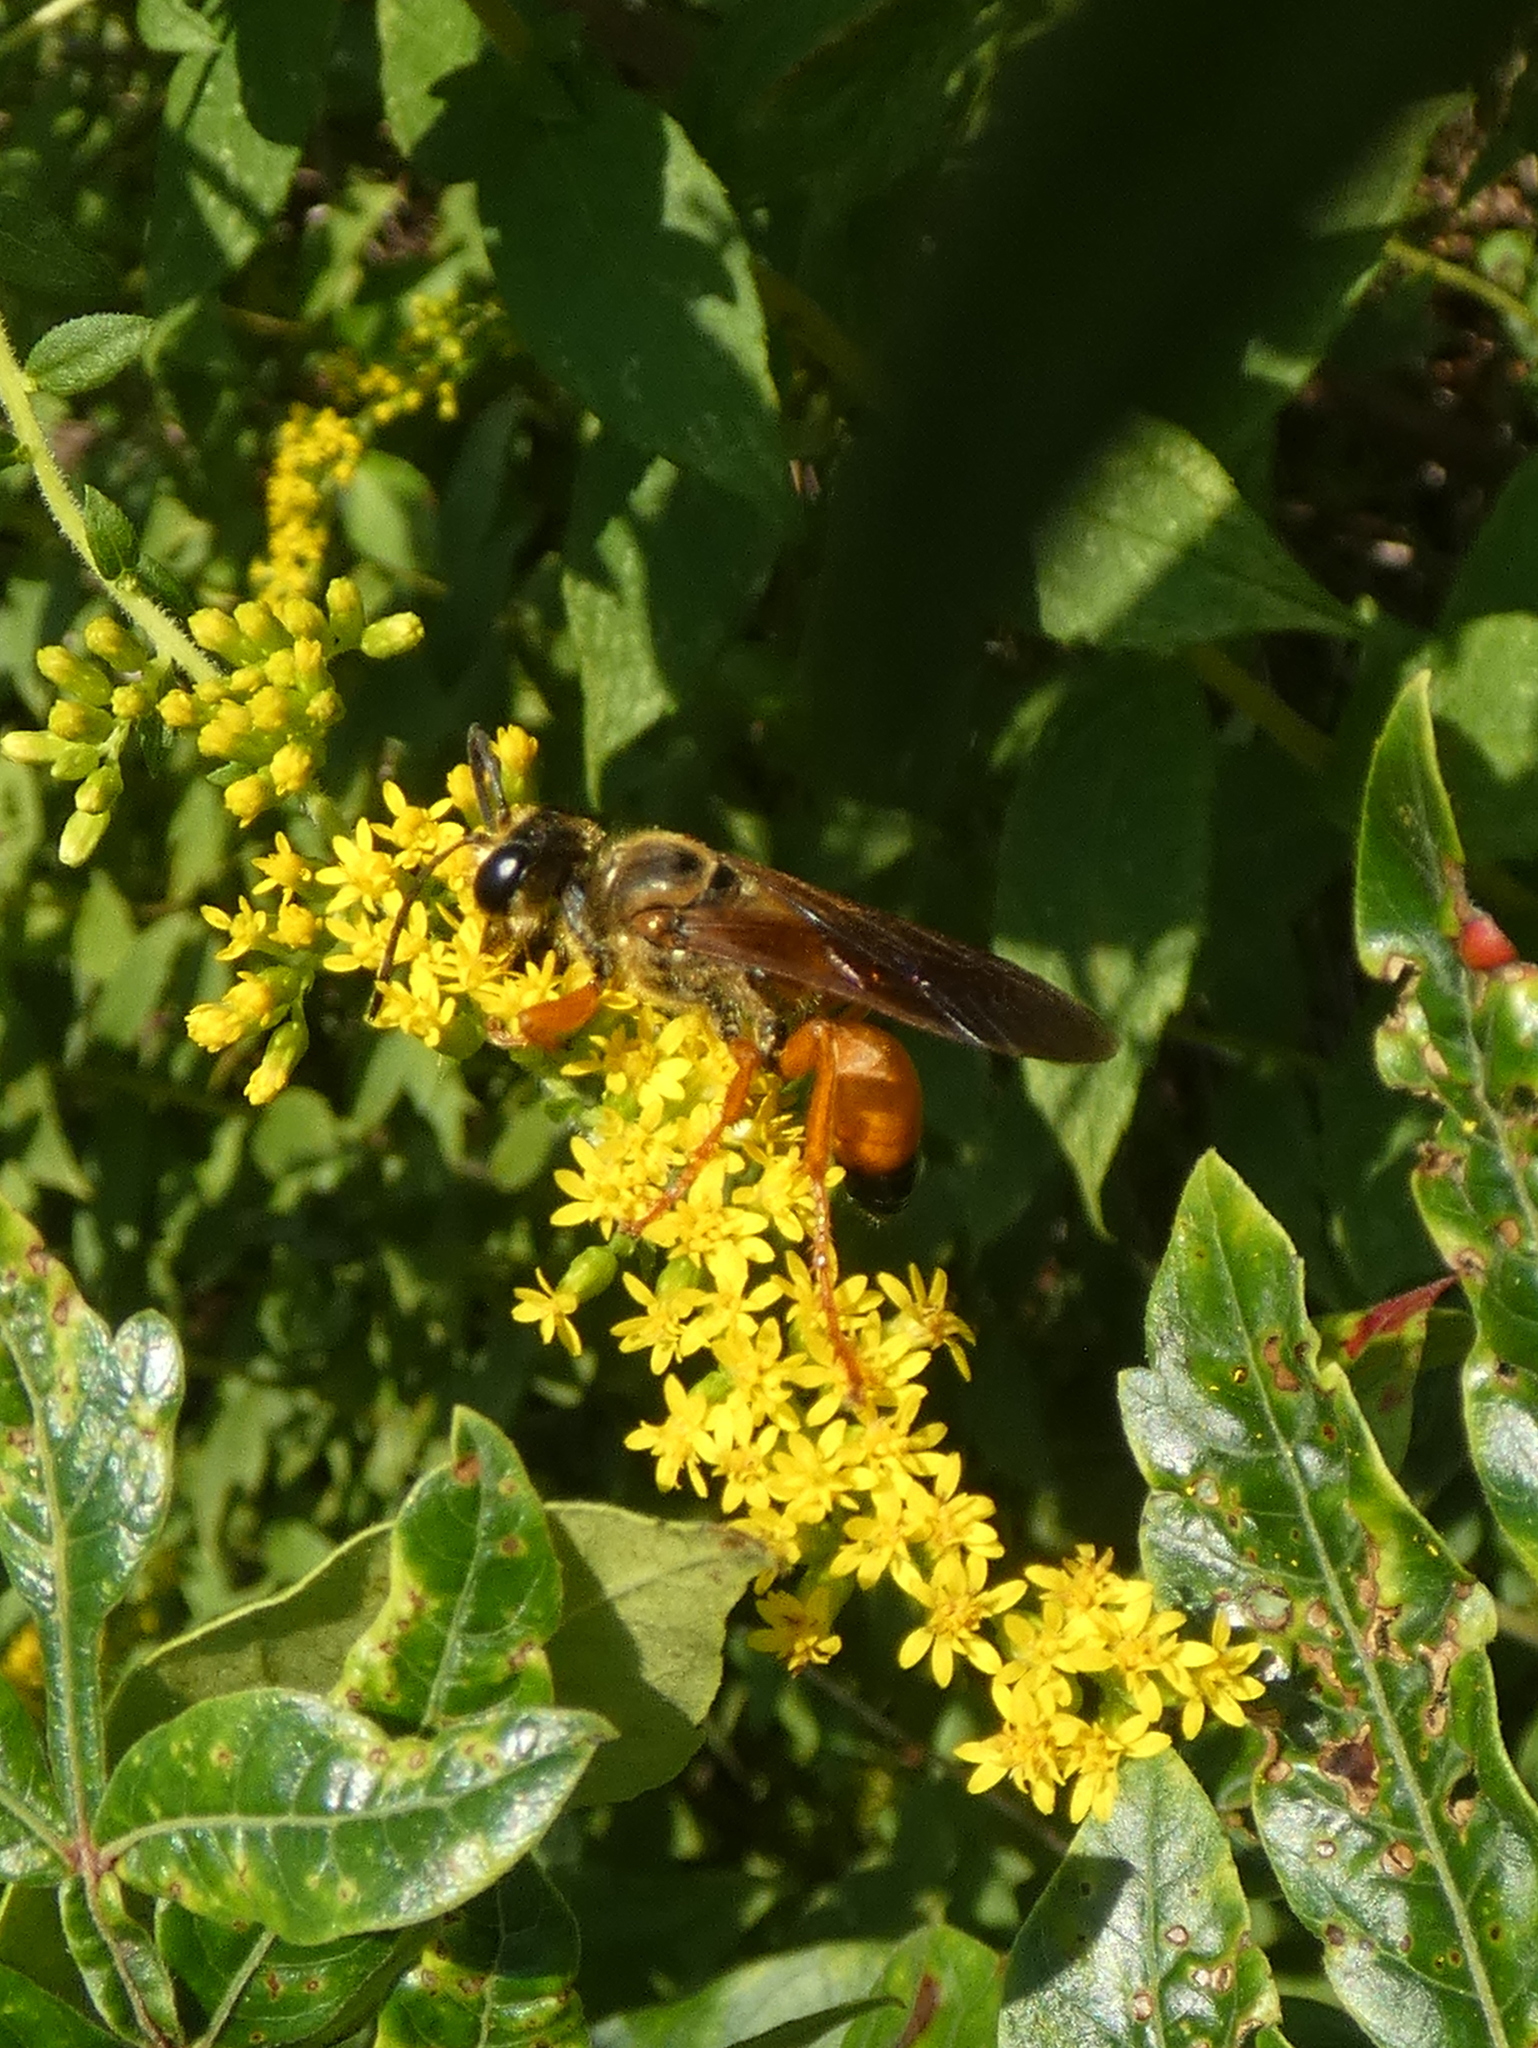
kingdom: Animalia
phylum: Arthropoda
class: Insecta
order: Hymenoptera
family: Sphecidae
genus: Sphex
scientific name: Sphex ichneumoneus
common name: Great golden digger wasp
